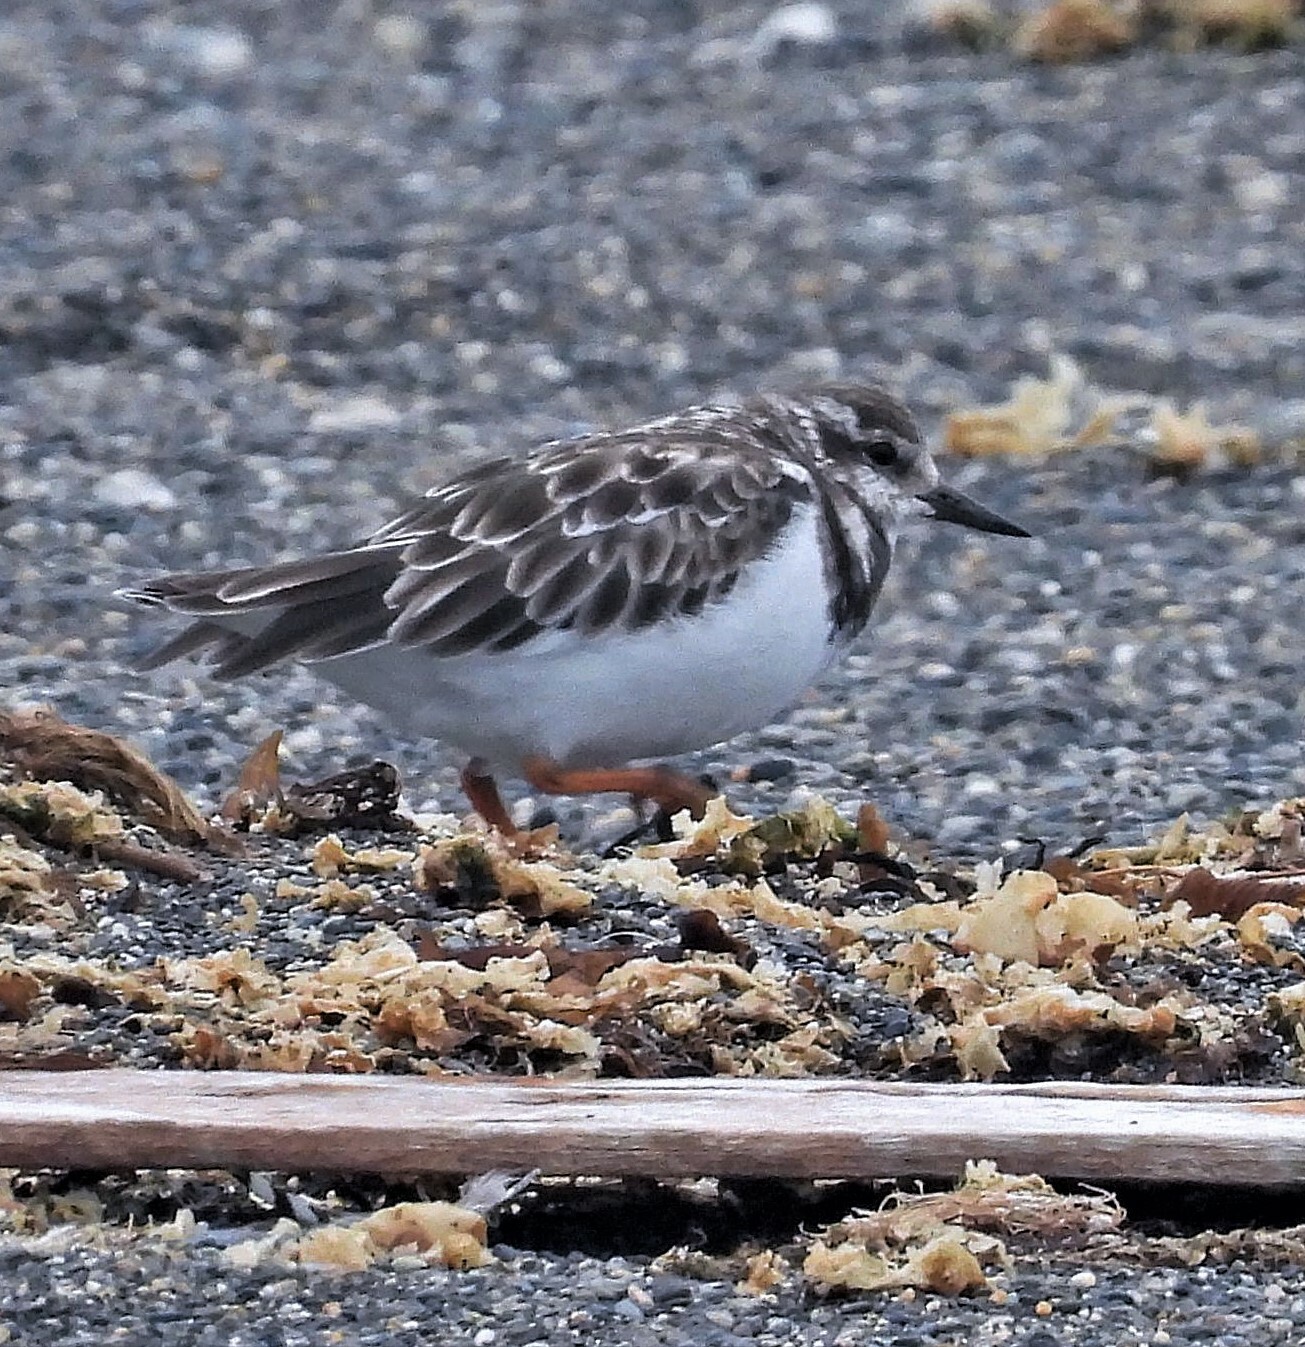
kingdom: Animalia
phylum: Chordata
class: Aves
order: Charadriiformes
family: Scolopacidae
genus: Arenaria
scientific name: Arenaria interpres
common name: Ruddy turnstone
